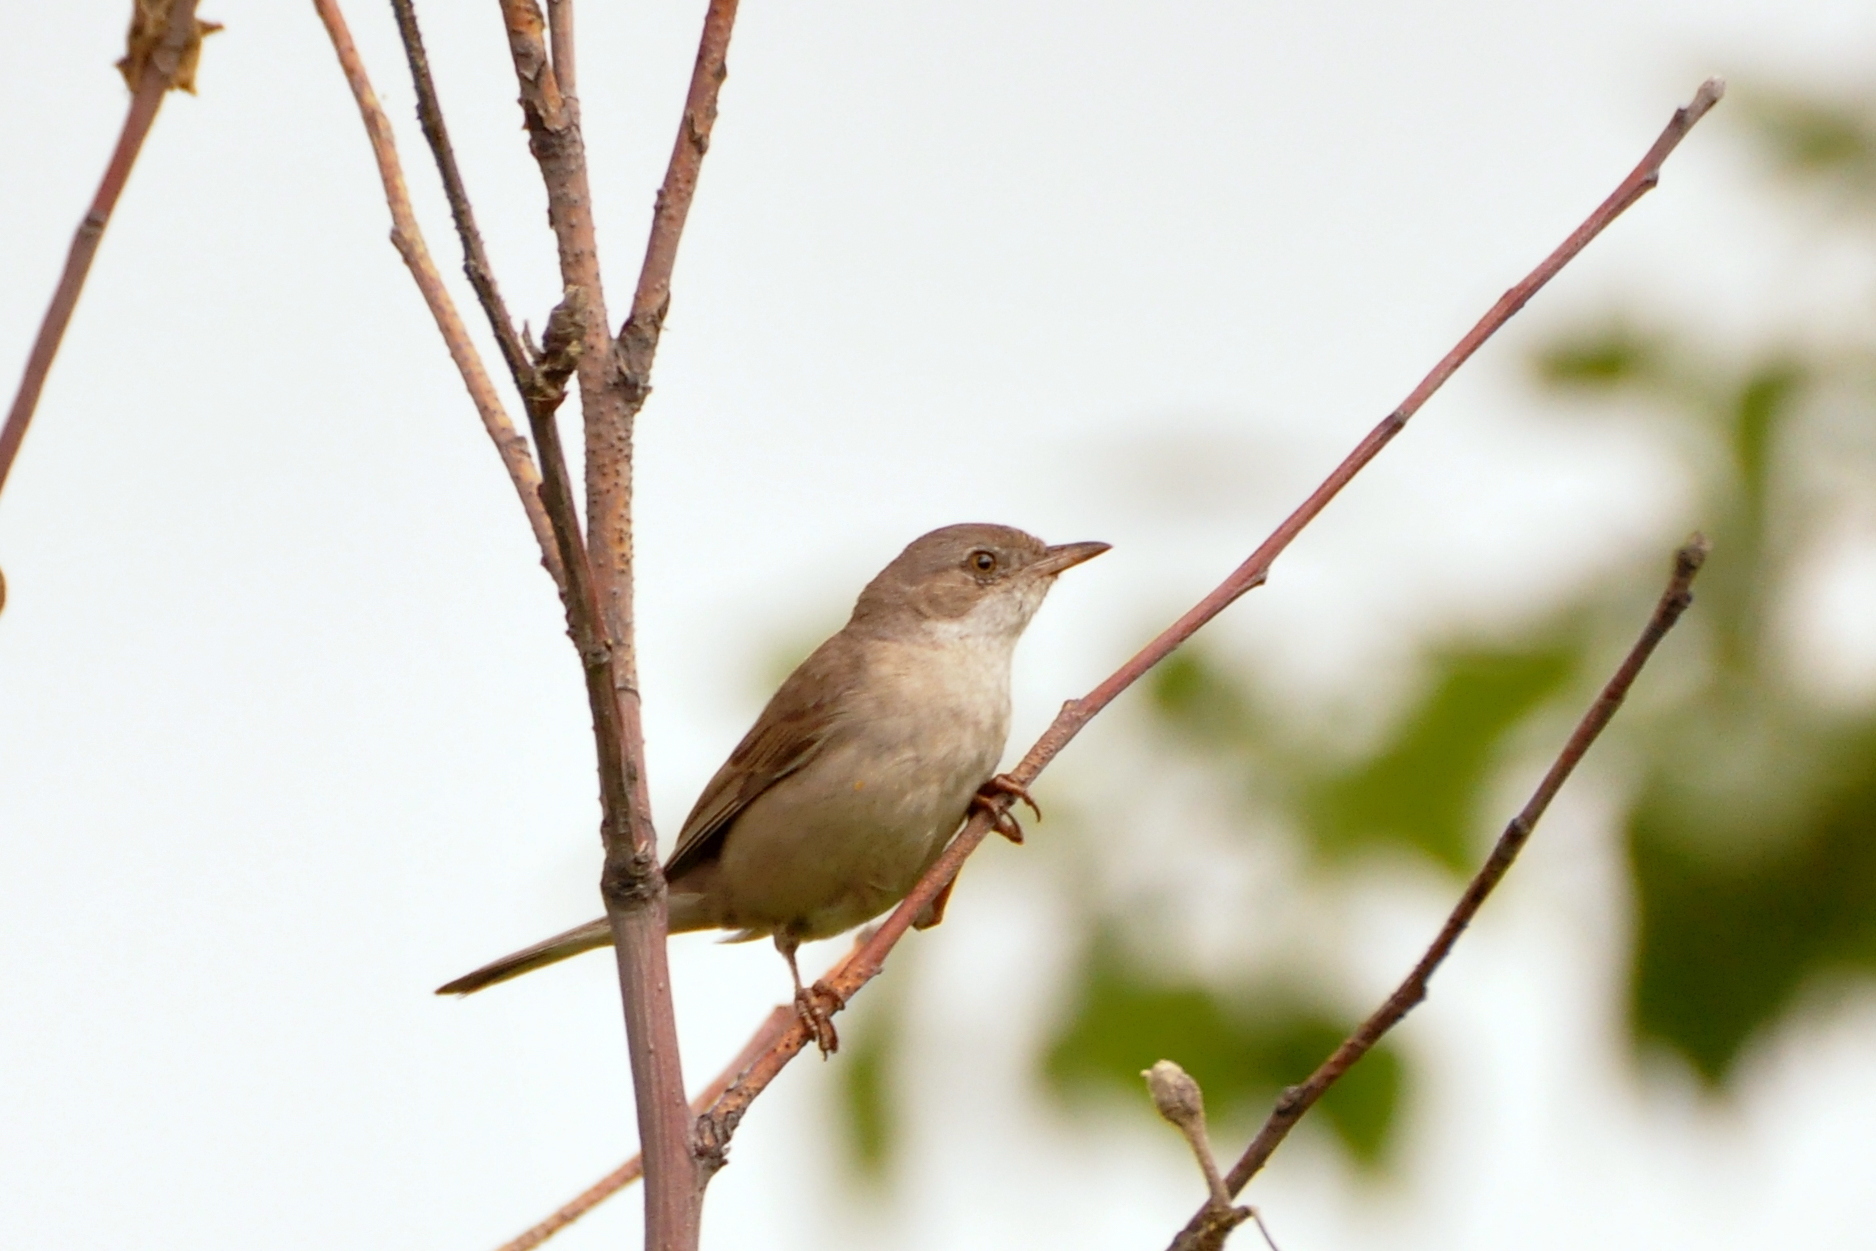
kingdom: Animalia
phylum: Chordata
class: Aves
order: Passeriformes
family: Sylviidae
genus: Sylvia
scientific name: Sylvia communis
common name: Common whitethroat
